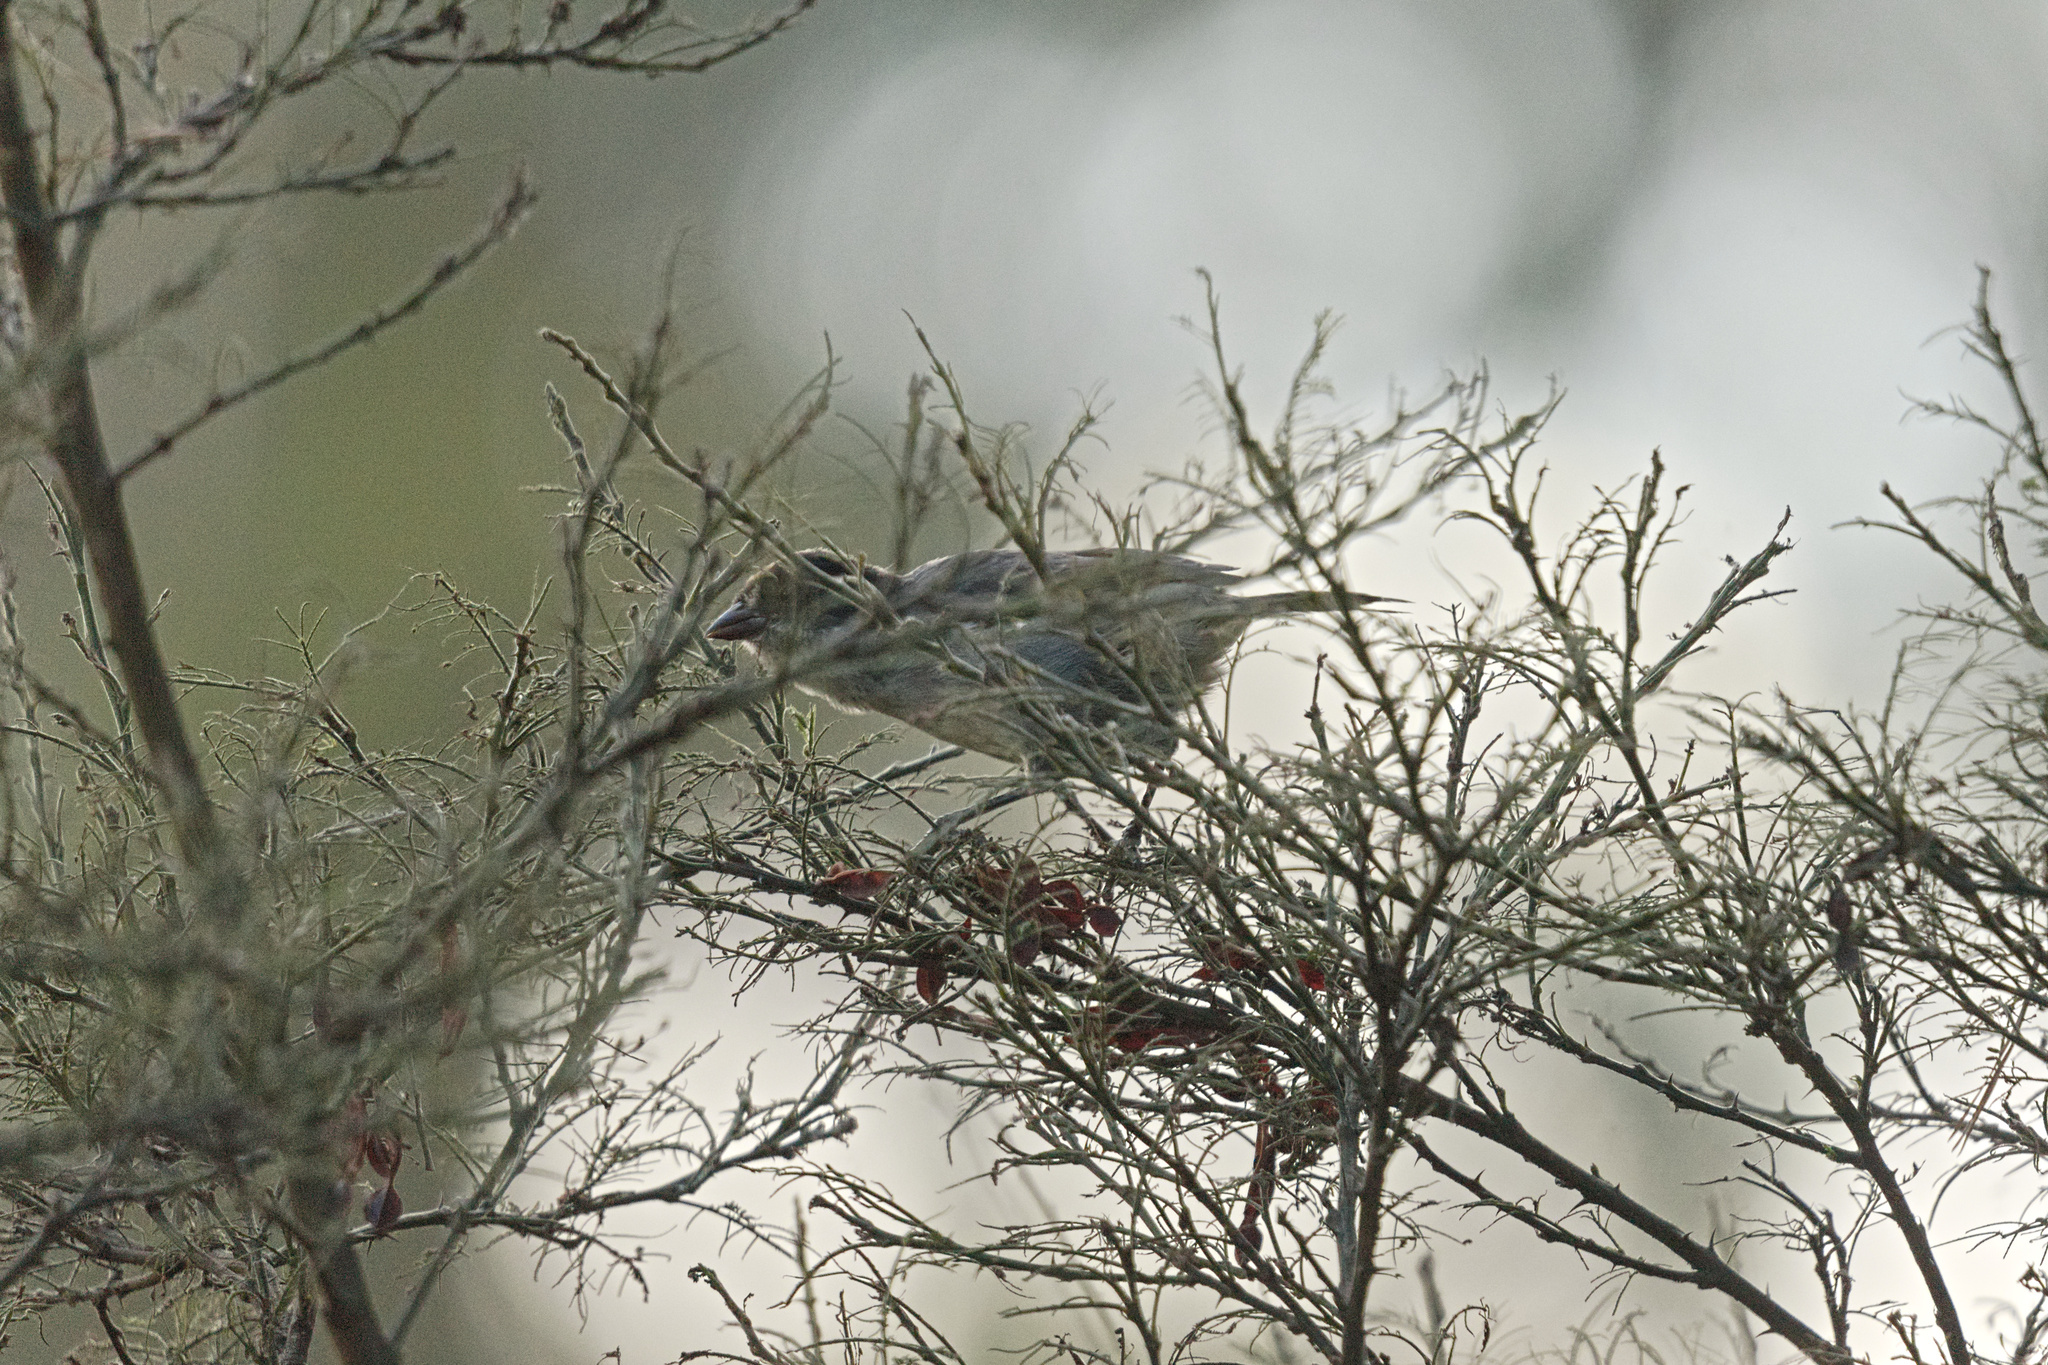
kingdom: Animalia
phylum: Chordata
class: Aves
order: Passeriformes
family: Passerellidae
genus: Atlapetes
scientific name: Atlapetes leucopterus
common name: White-winged brushfinch
